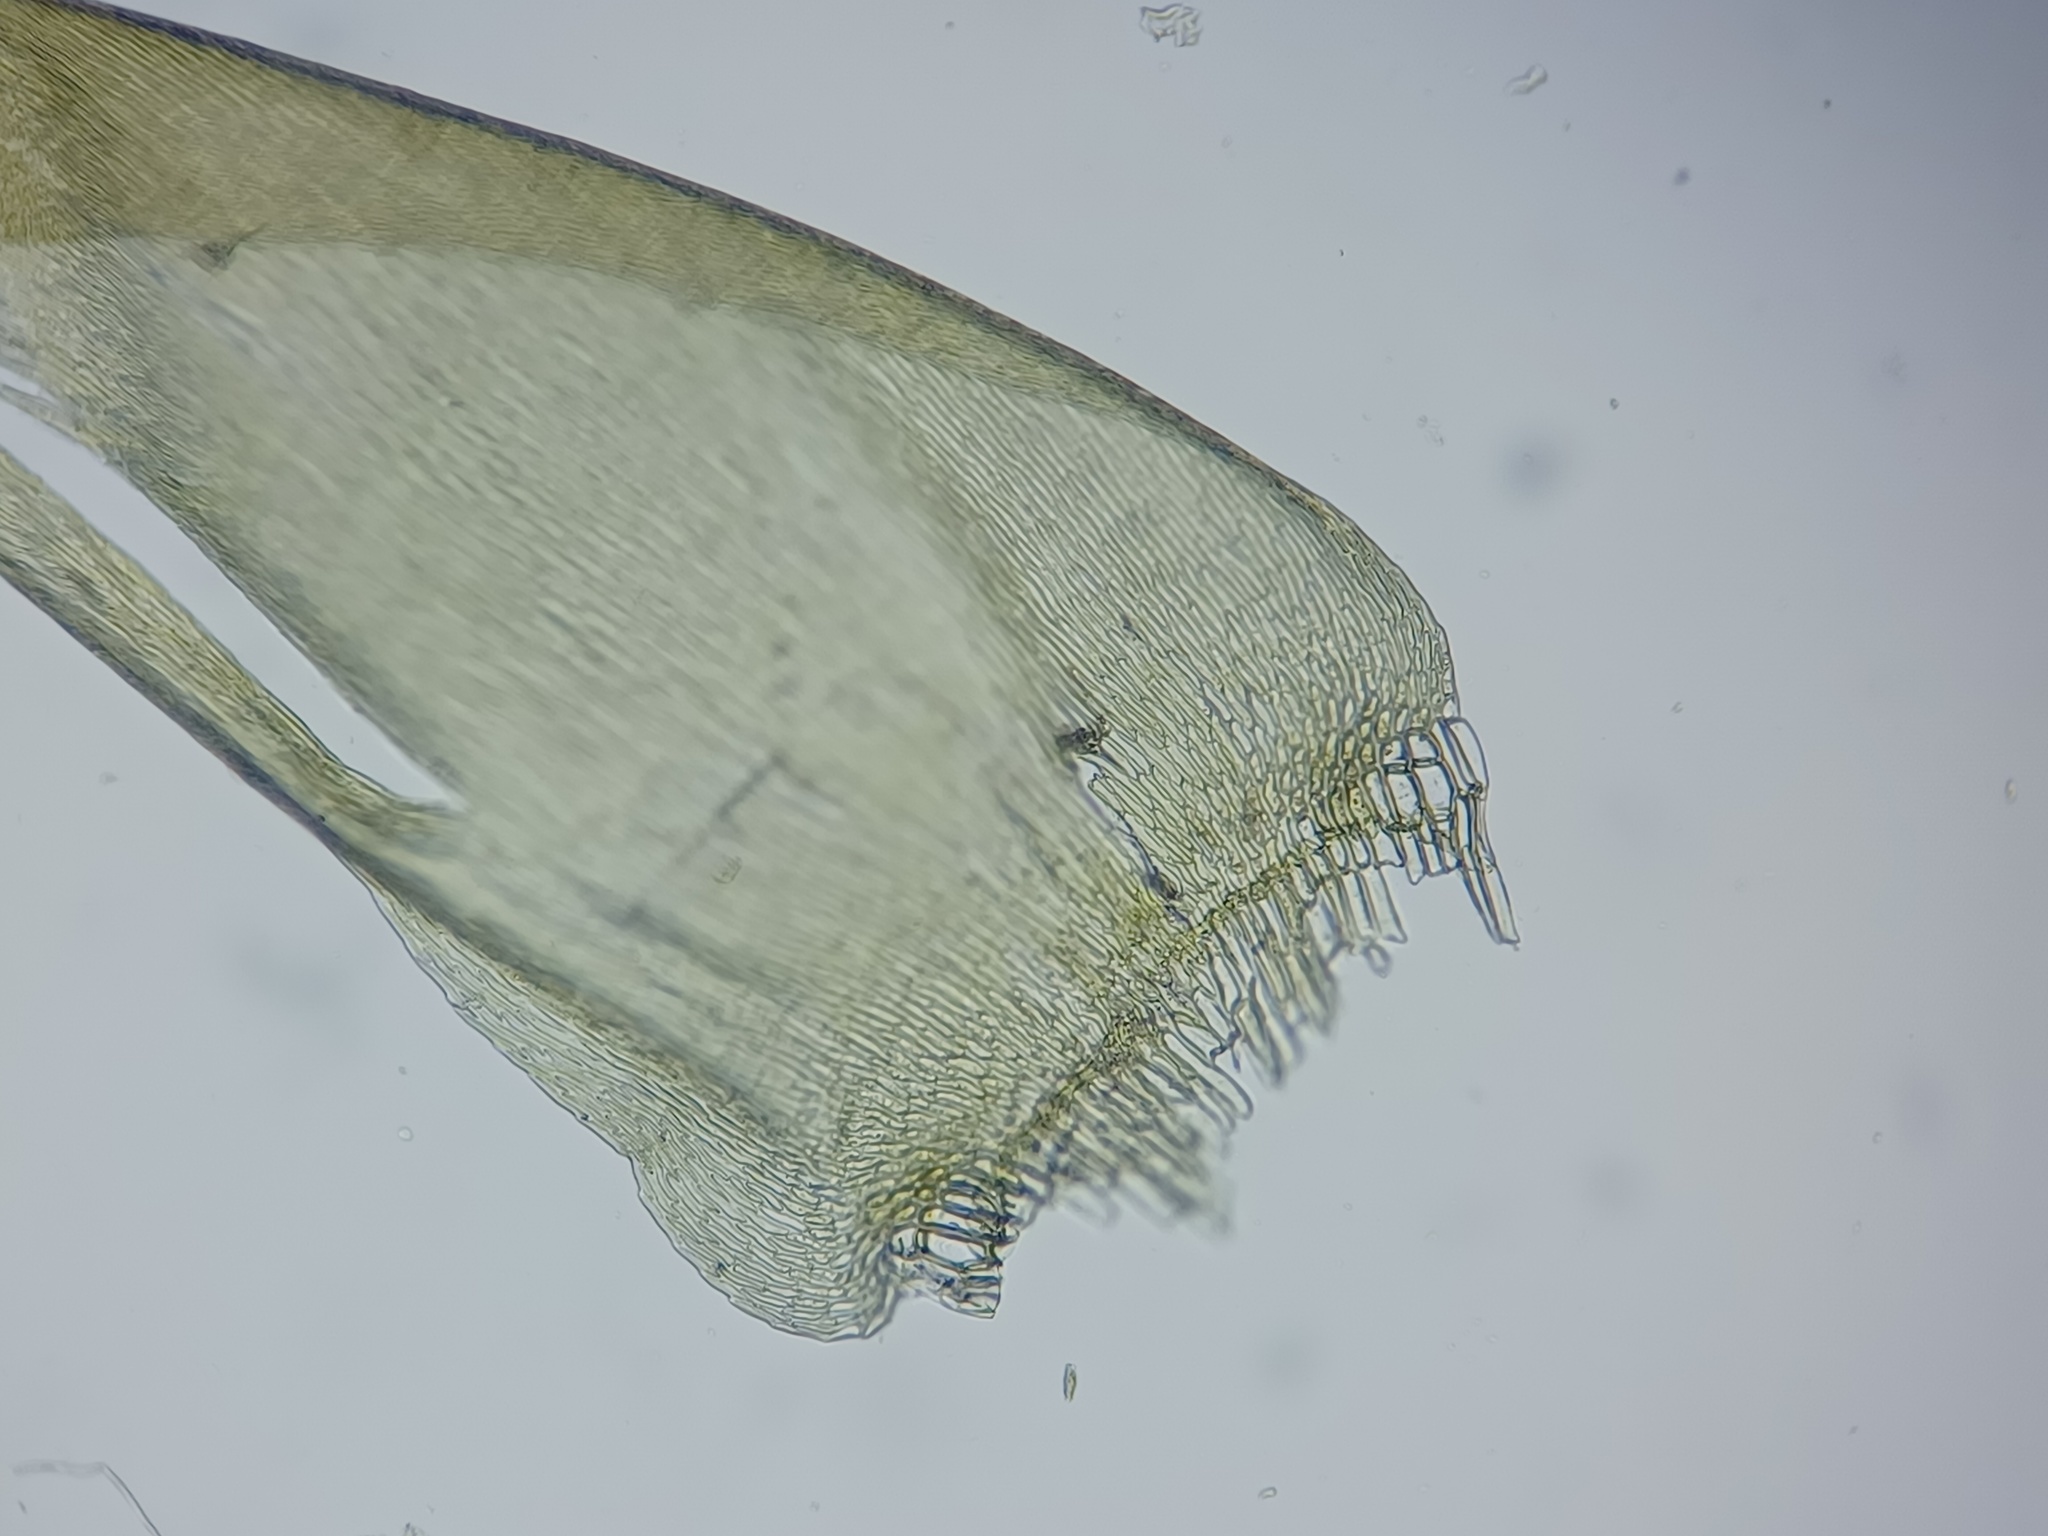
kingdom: Plantae
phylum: Bryophyta
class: Bryopsida
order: Hypnales
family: Pylaisiaceae
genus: Calliergonella
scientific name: Calliergonella lindbergii
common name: Lindberg's plait-moss
